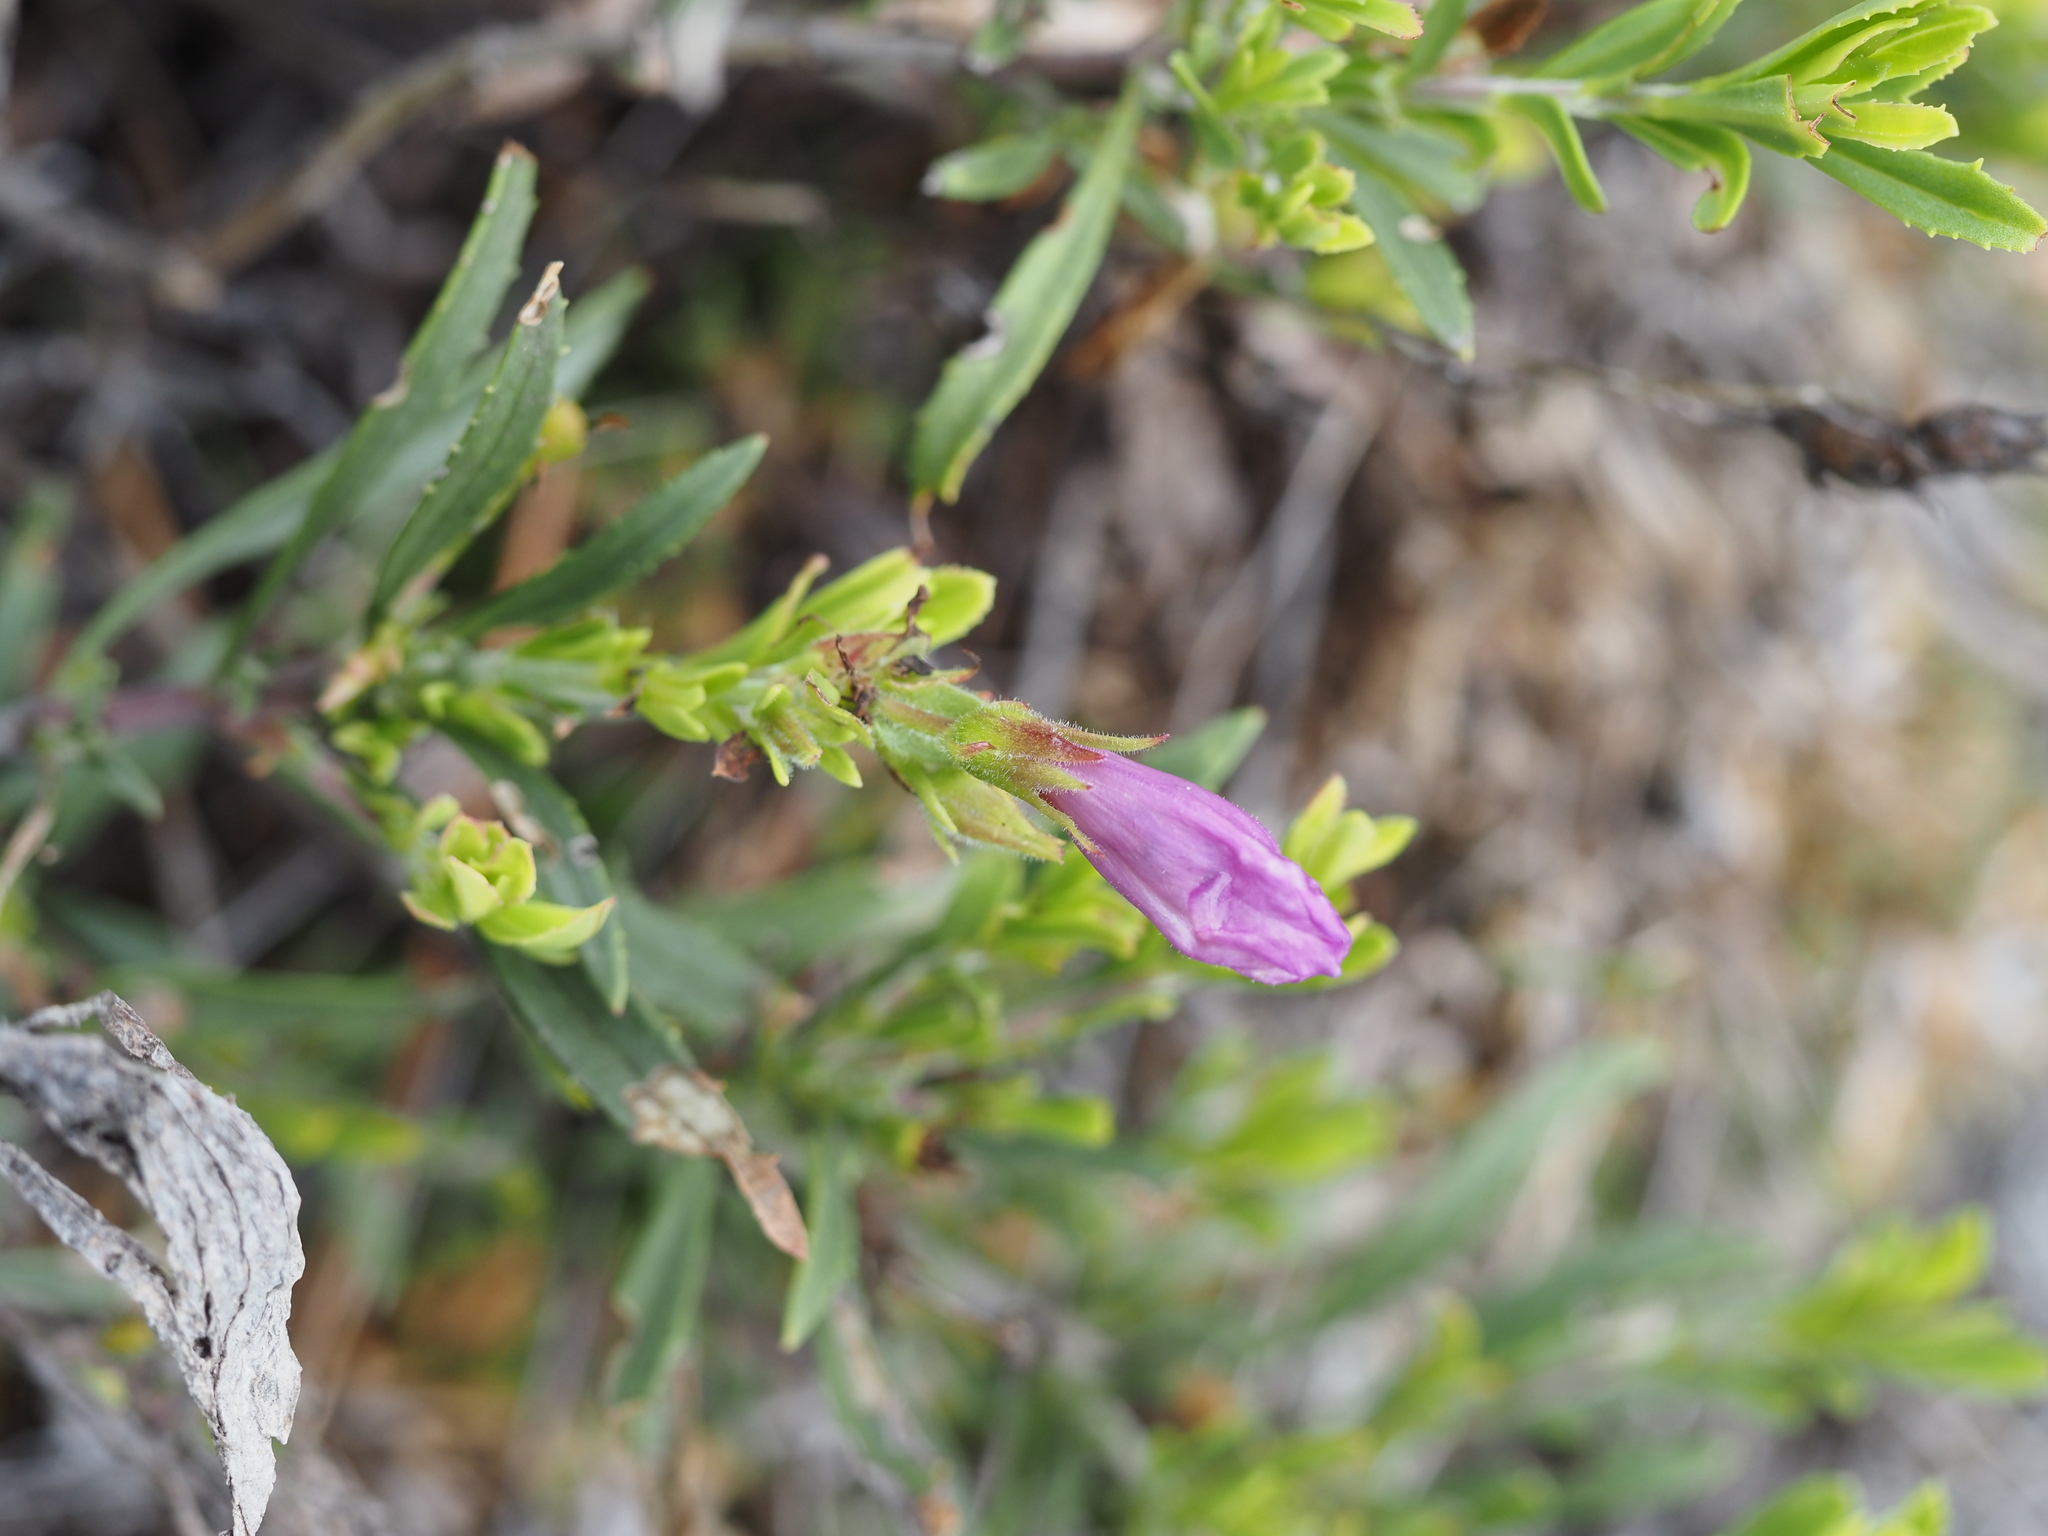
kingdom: Plantae
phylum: Tracheophyta
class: Magnoliopsida
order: Lamiales
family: Plantaginaceae
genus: Penstemon
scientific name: Penstemon fruticosus
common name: Bush penstemon
